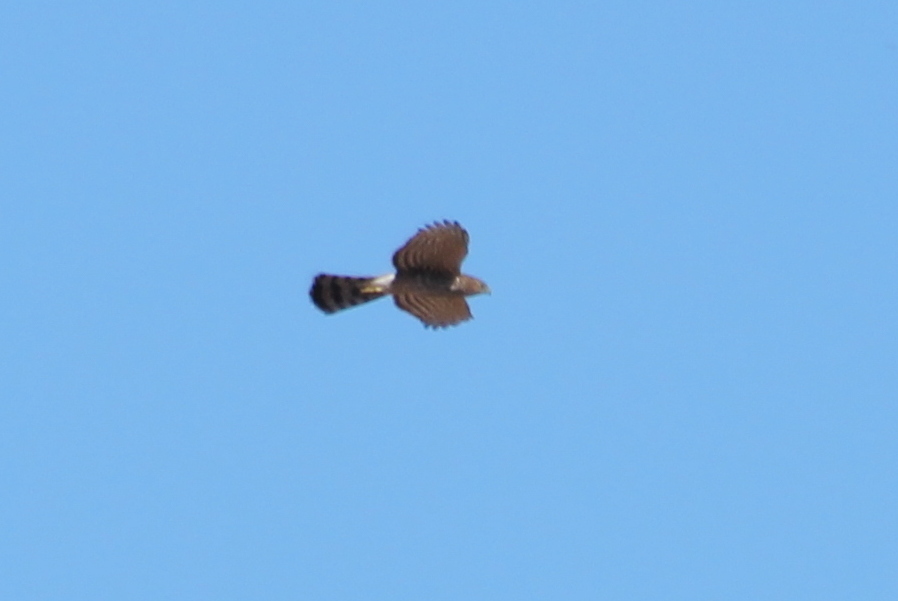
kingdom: Animalia
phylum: Chordata
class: Aves
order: Accipitriformes
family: Accipitridae
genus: Accipiter
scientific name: Accipiter cooperii
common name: Cooper's hawk
